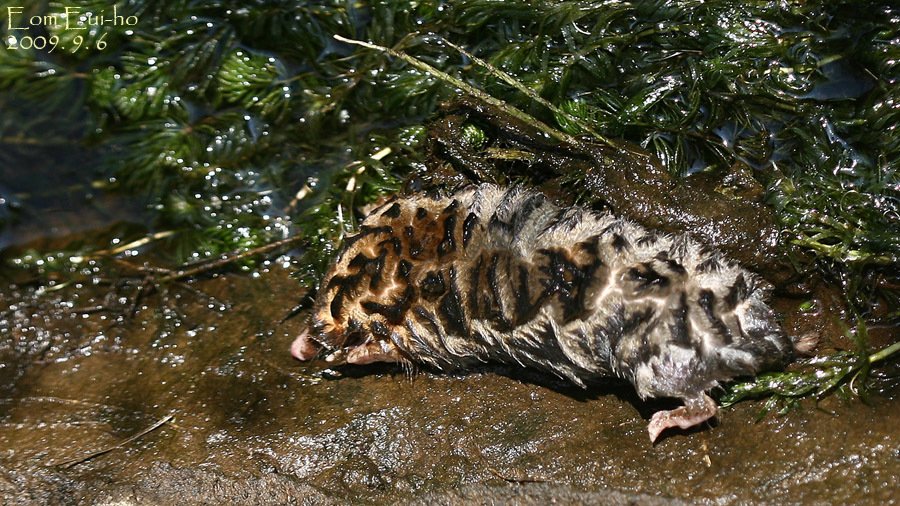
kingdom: Animalia
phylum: Chordata
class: Mammalia
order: Soricomorpha
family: Talpidae
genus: Mogera
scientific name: Mogera wogura
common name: Japanese mole
